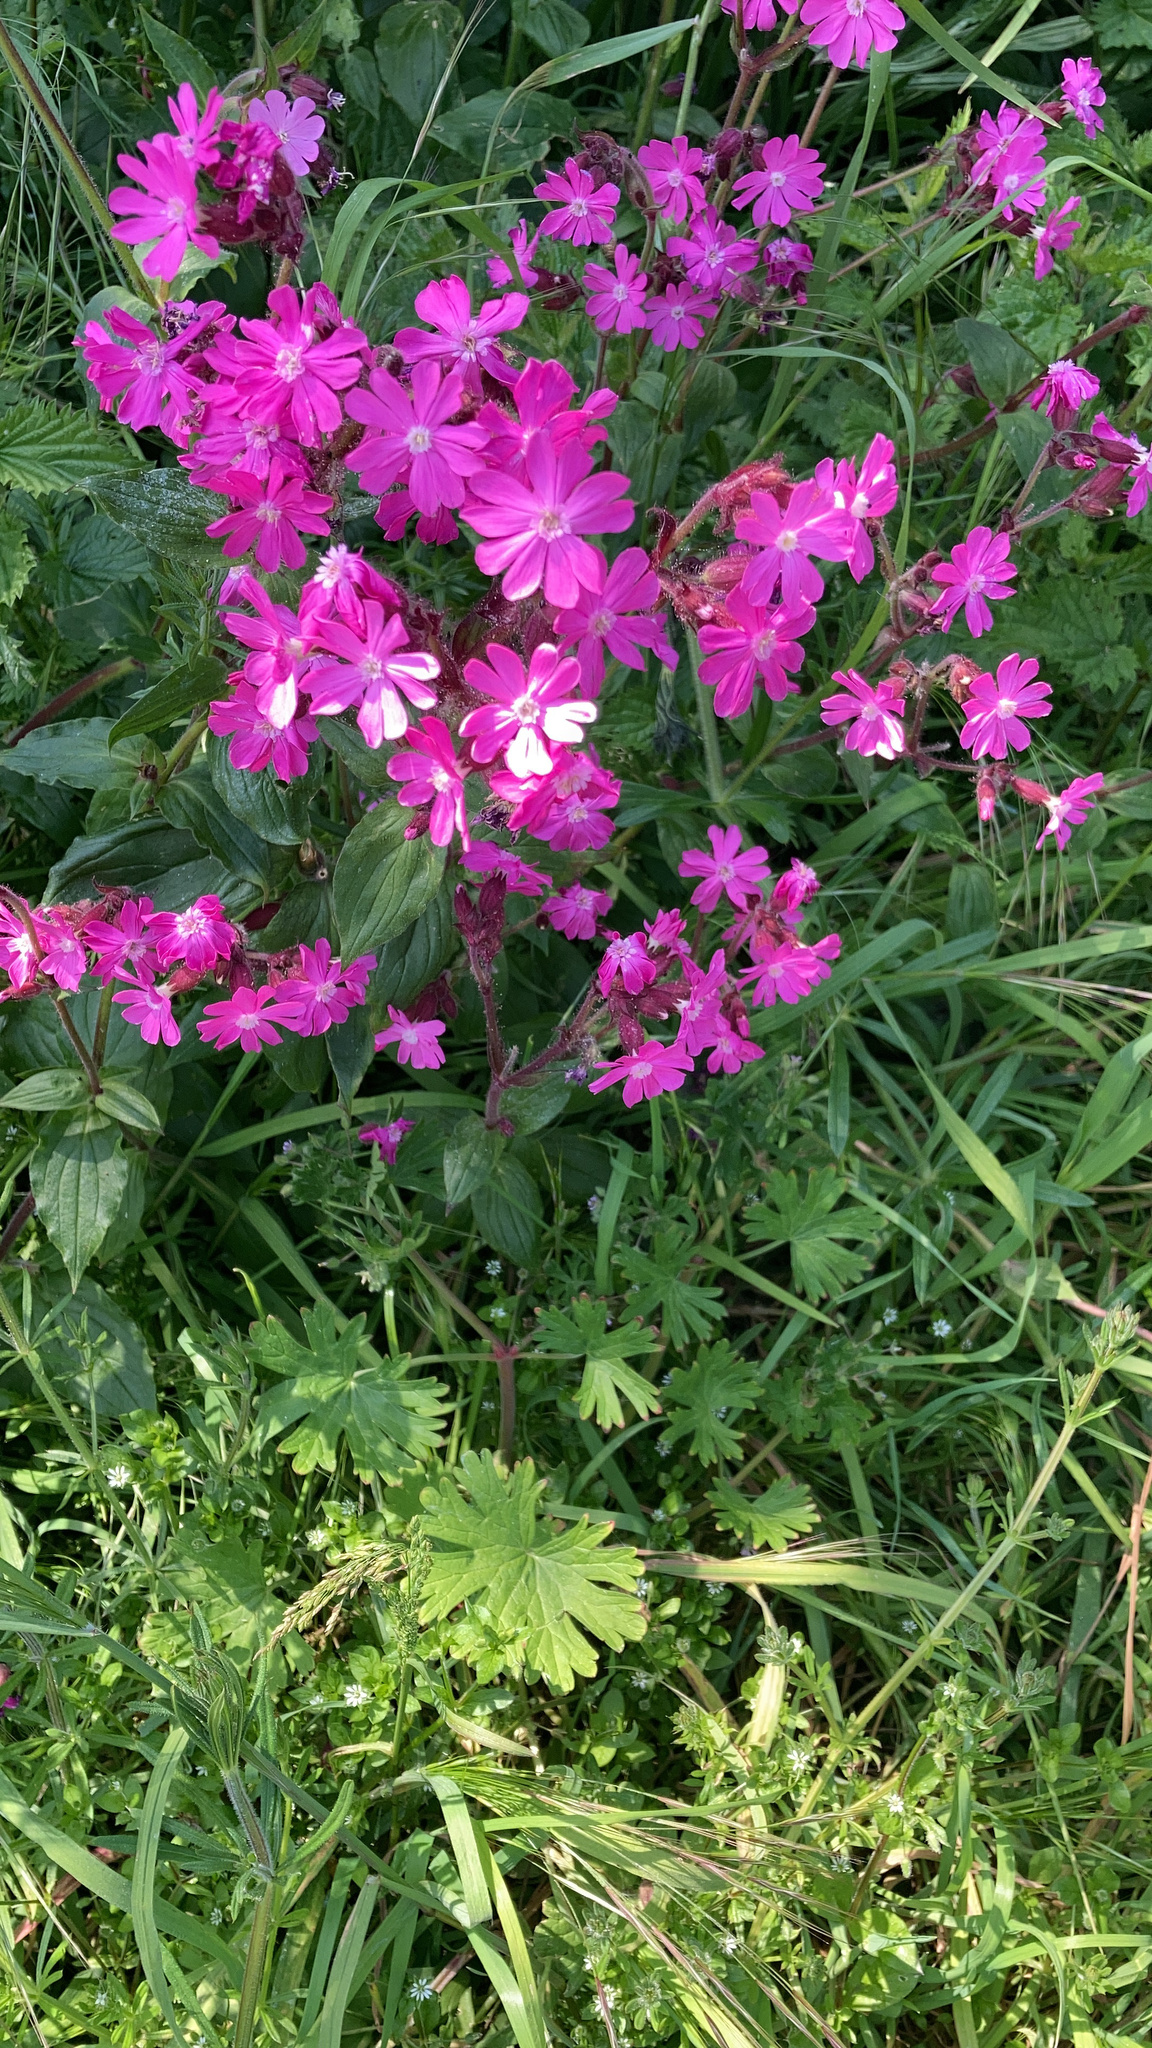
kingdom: Plantae
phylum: Tracheophyta
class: Magnoliopsida
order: Caryophyllales
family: Caryophyllaceae
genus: Silene
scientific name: Silene dioica
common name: Red campion
